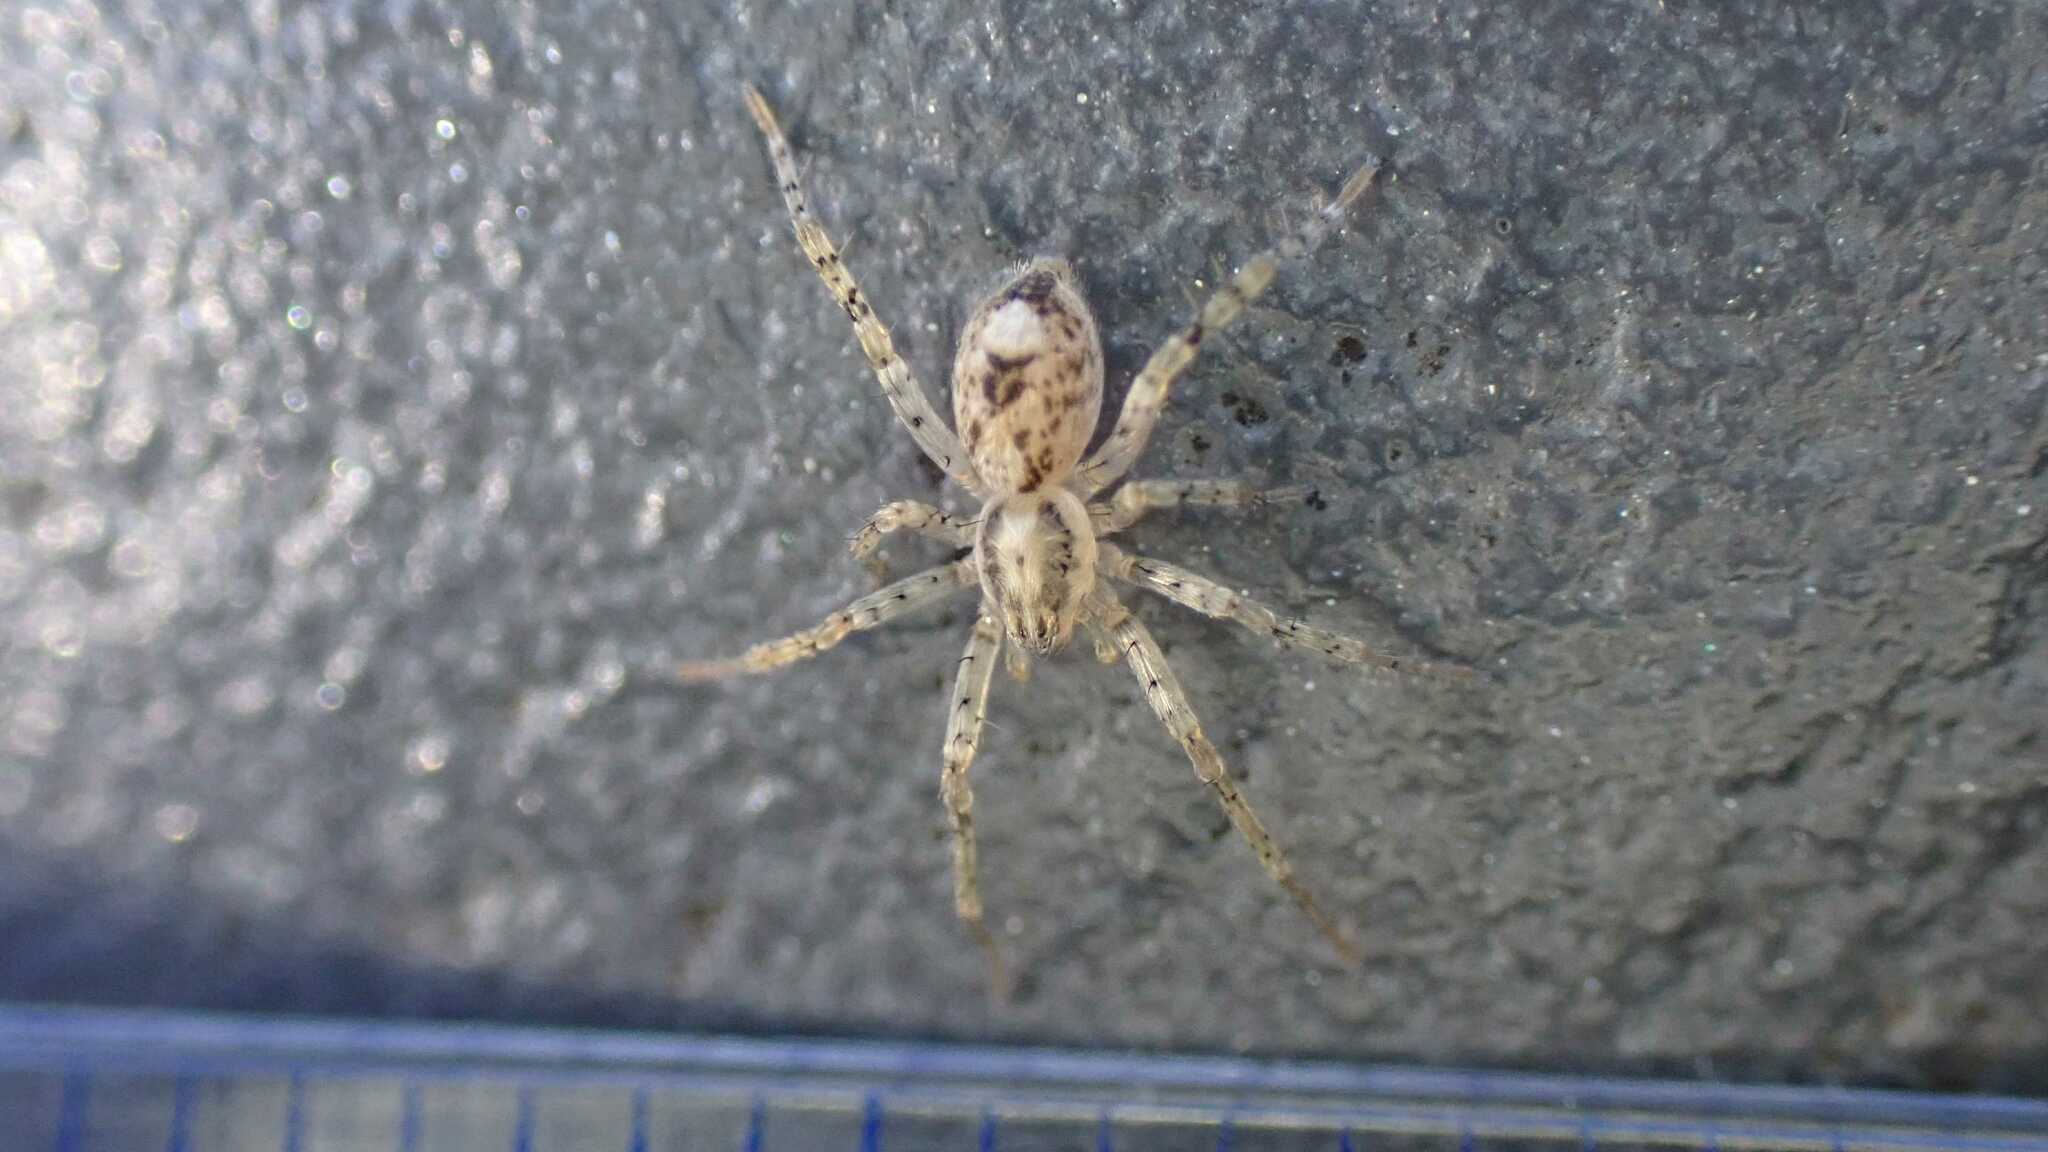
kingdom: Animalia
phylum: Arthropoda
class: Arachnida
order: Araneae
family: Anyphaenidae
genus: Anyphaena
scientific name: Anyphaena accentuata
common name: Buzzing spider
